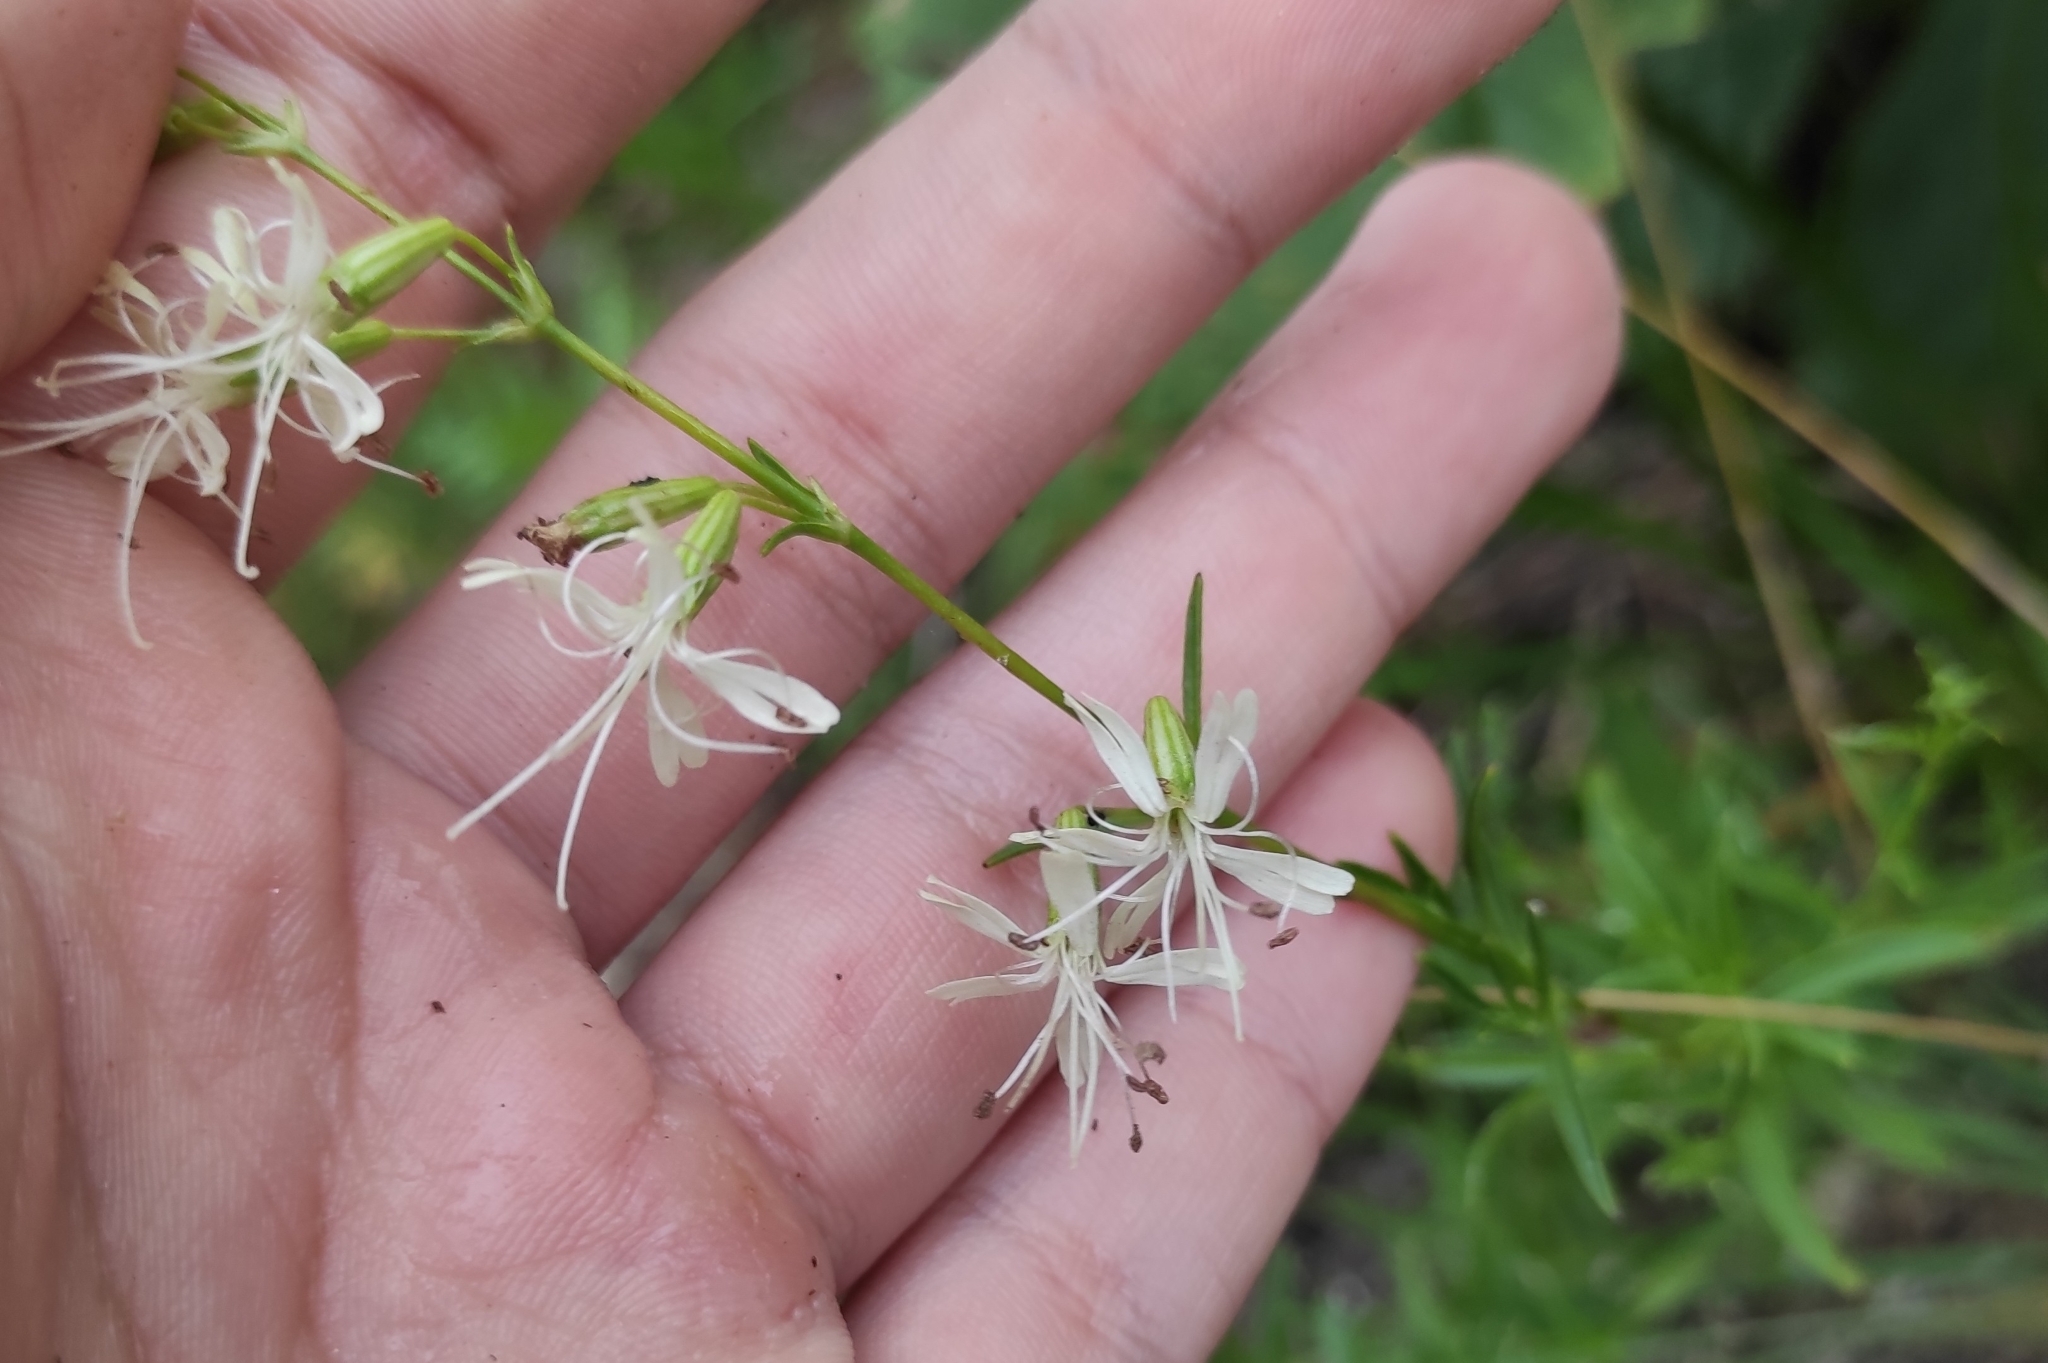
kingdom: Plantae
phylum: Tracheophyta
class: Magnoliopsida
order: Caryophyllales
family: Caryophyllaceae
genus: Silene
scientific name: Silene foliosa
